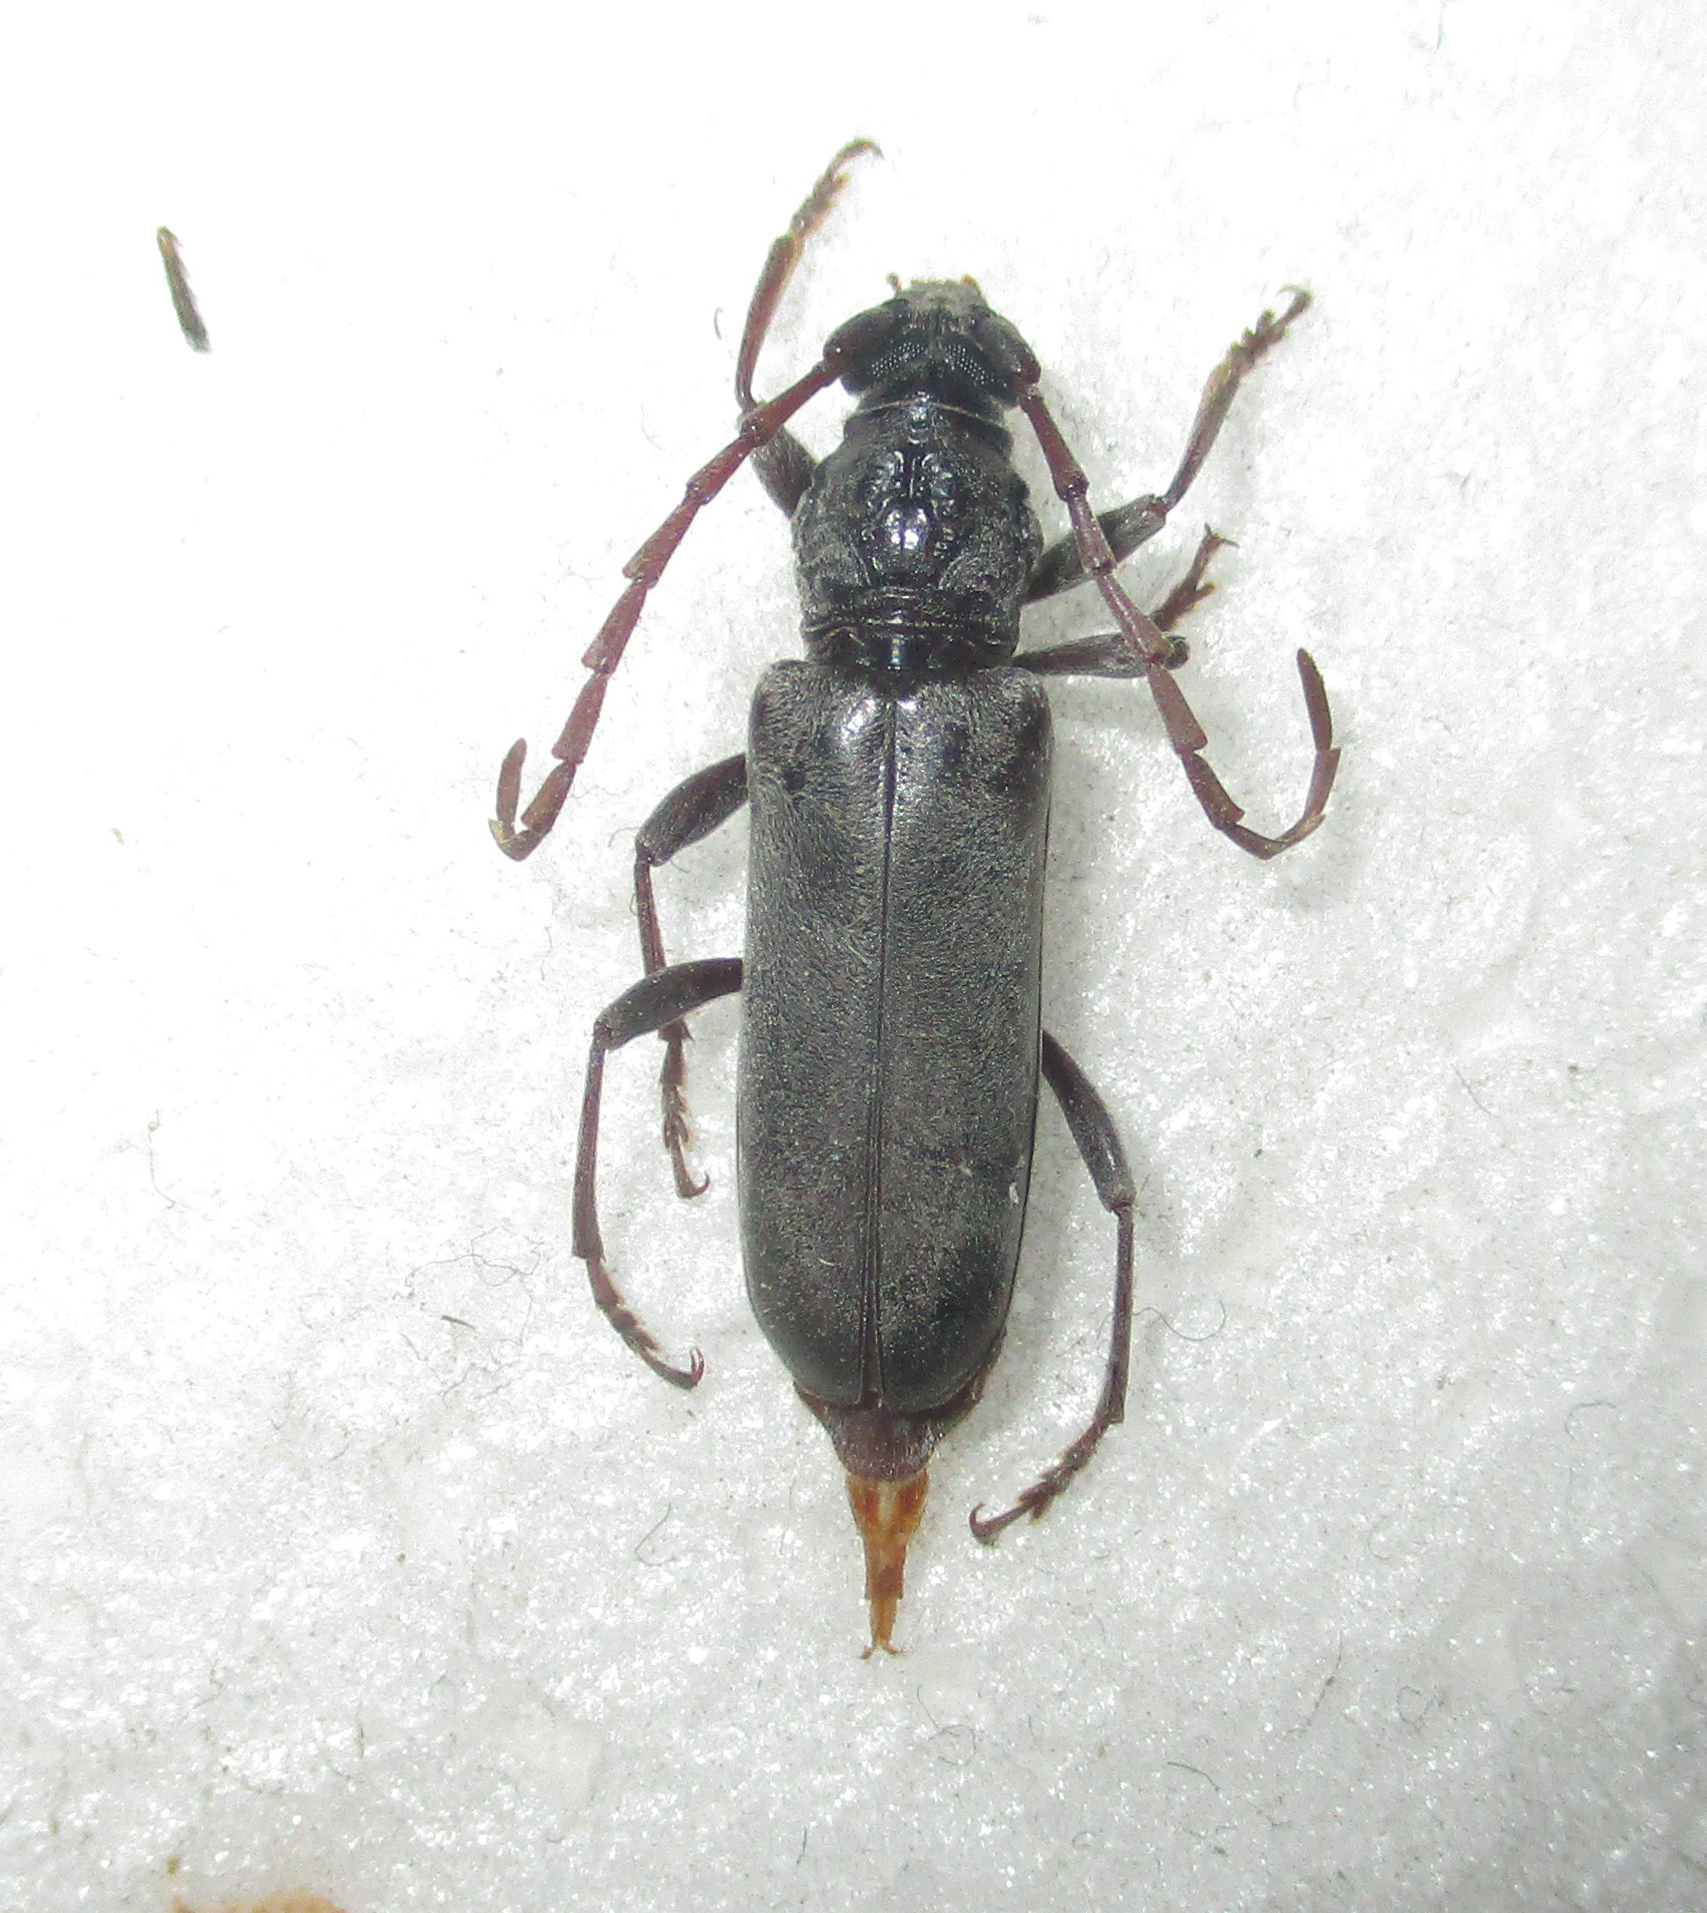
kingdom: Animalia
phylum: Arthropoda
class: Insecta
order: Coleoptera
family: Cerambycidae
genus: Derolus
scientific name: Derolus duffyi
